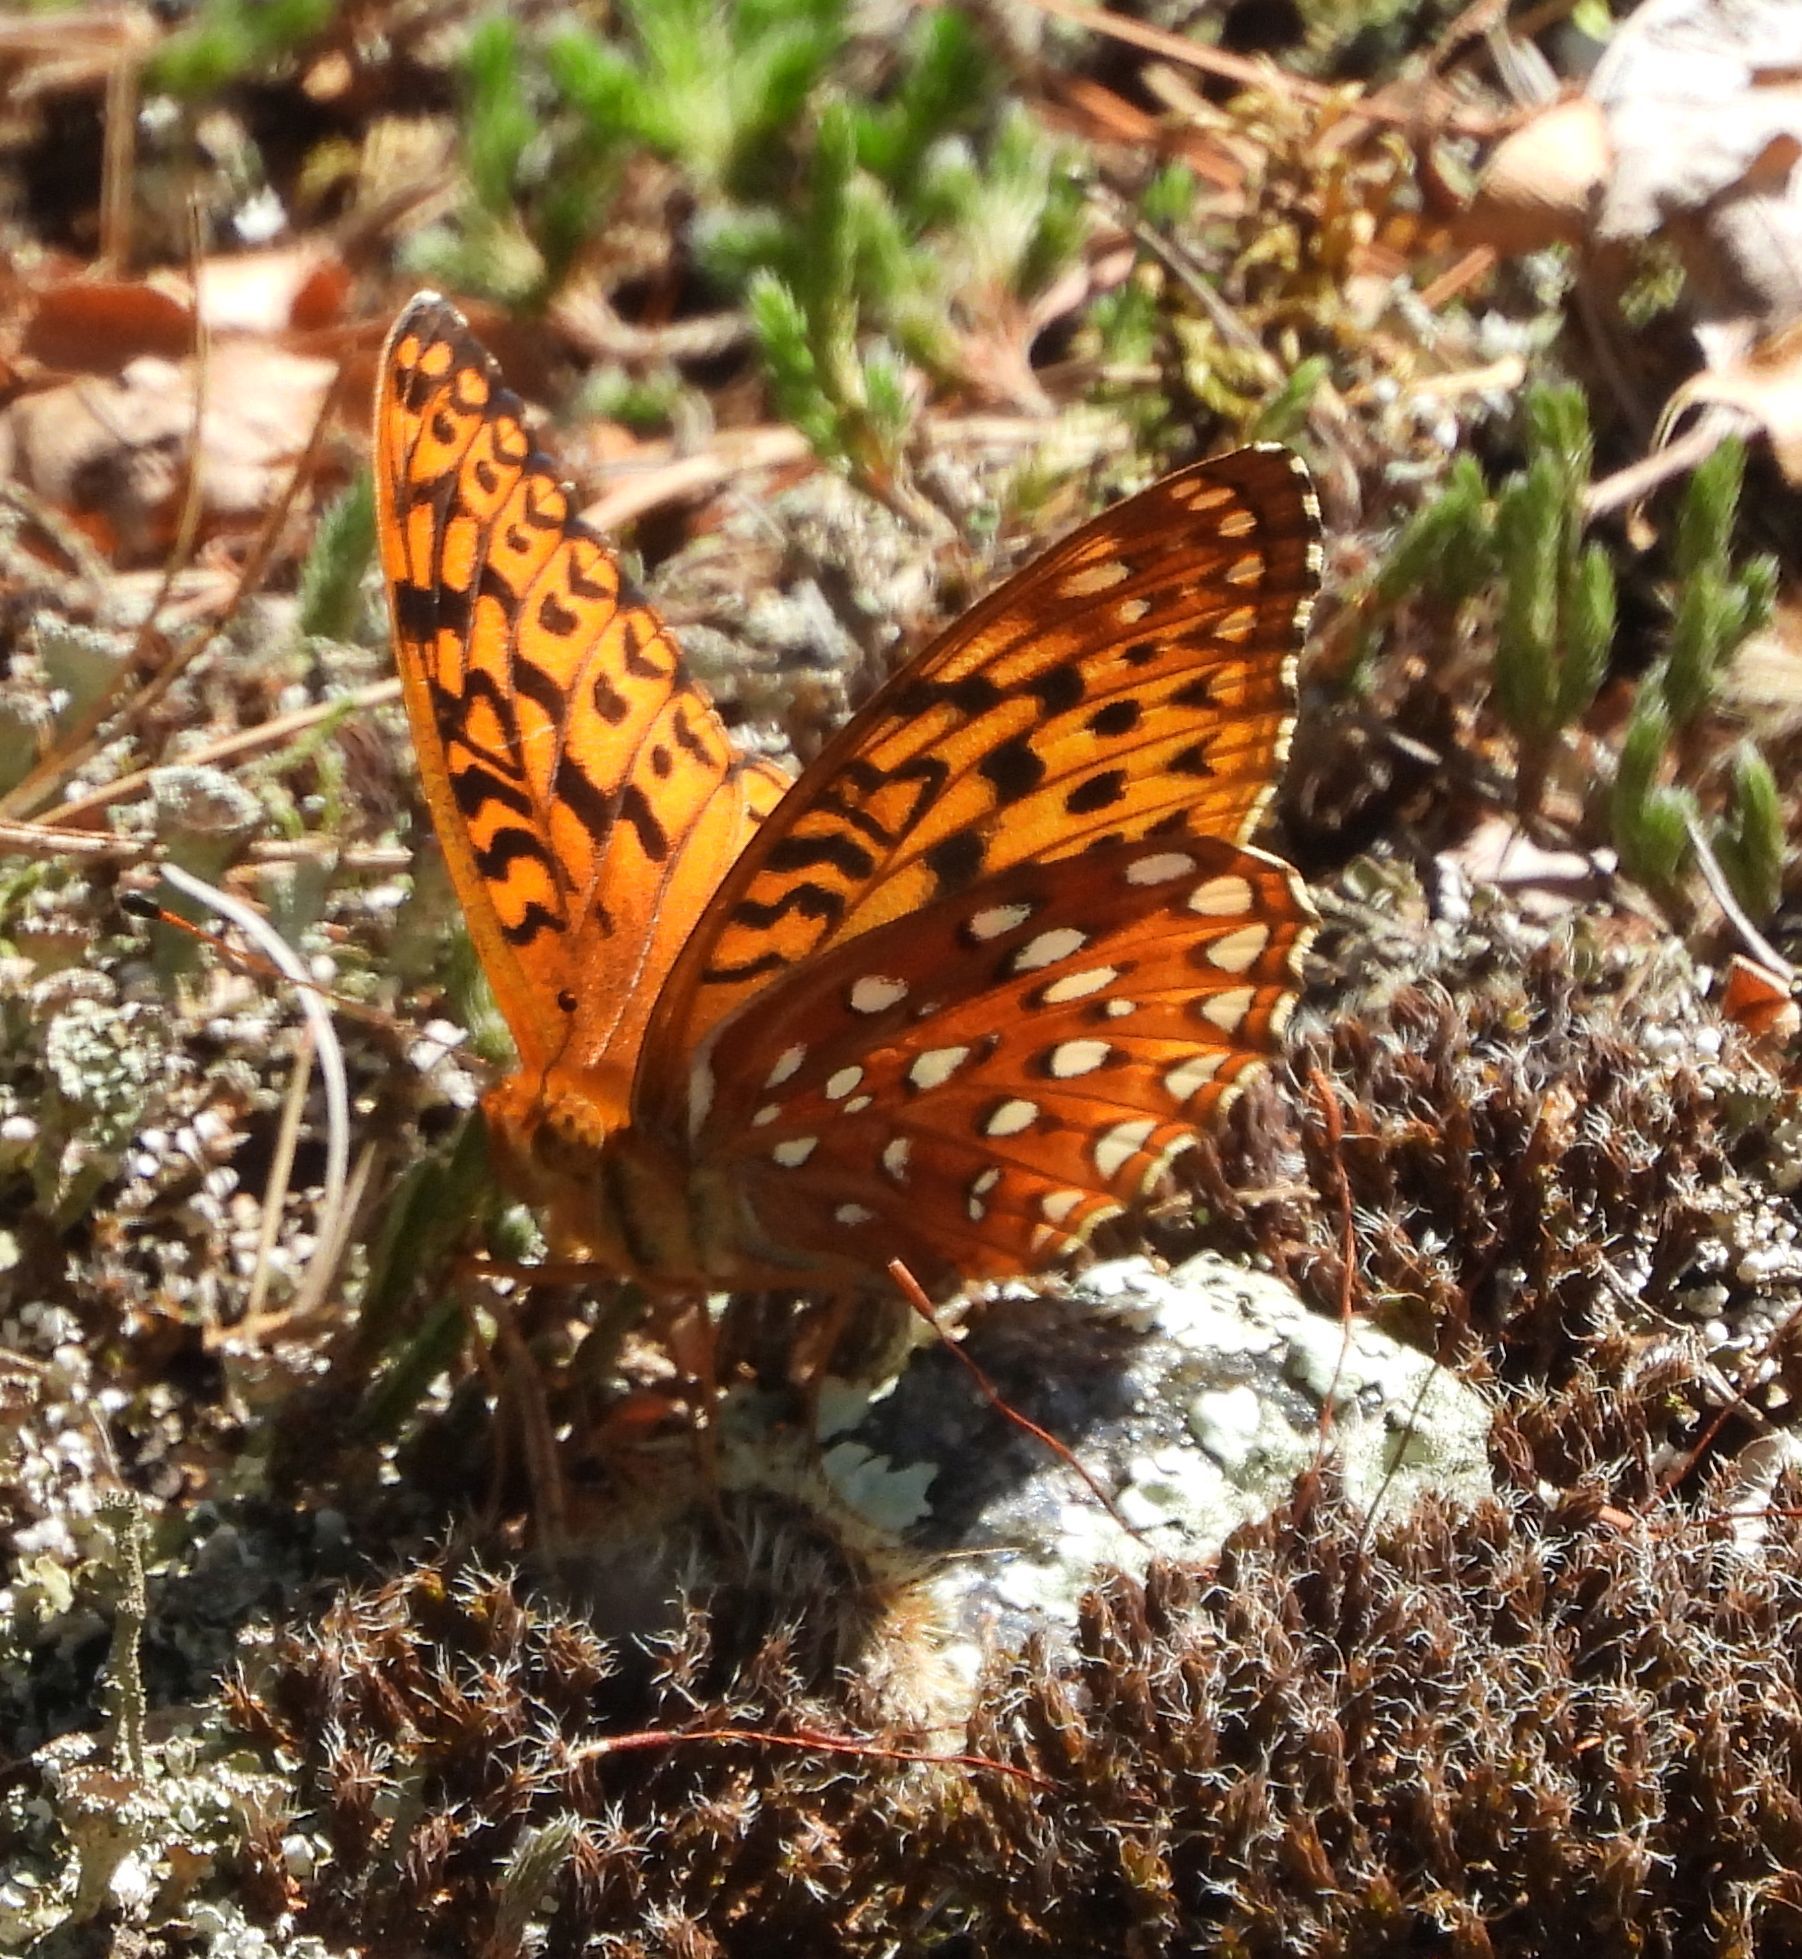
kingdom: Animalia
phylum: Arthropoda
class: Insecta
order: Lepidoptera
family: Nymphalidae
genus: Speyeria
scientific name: Speyeria aphrodite
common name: Aphrodite friitllary
